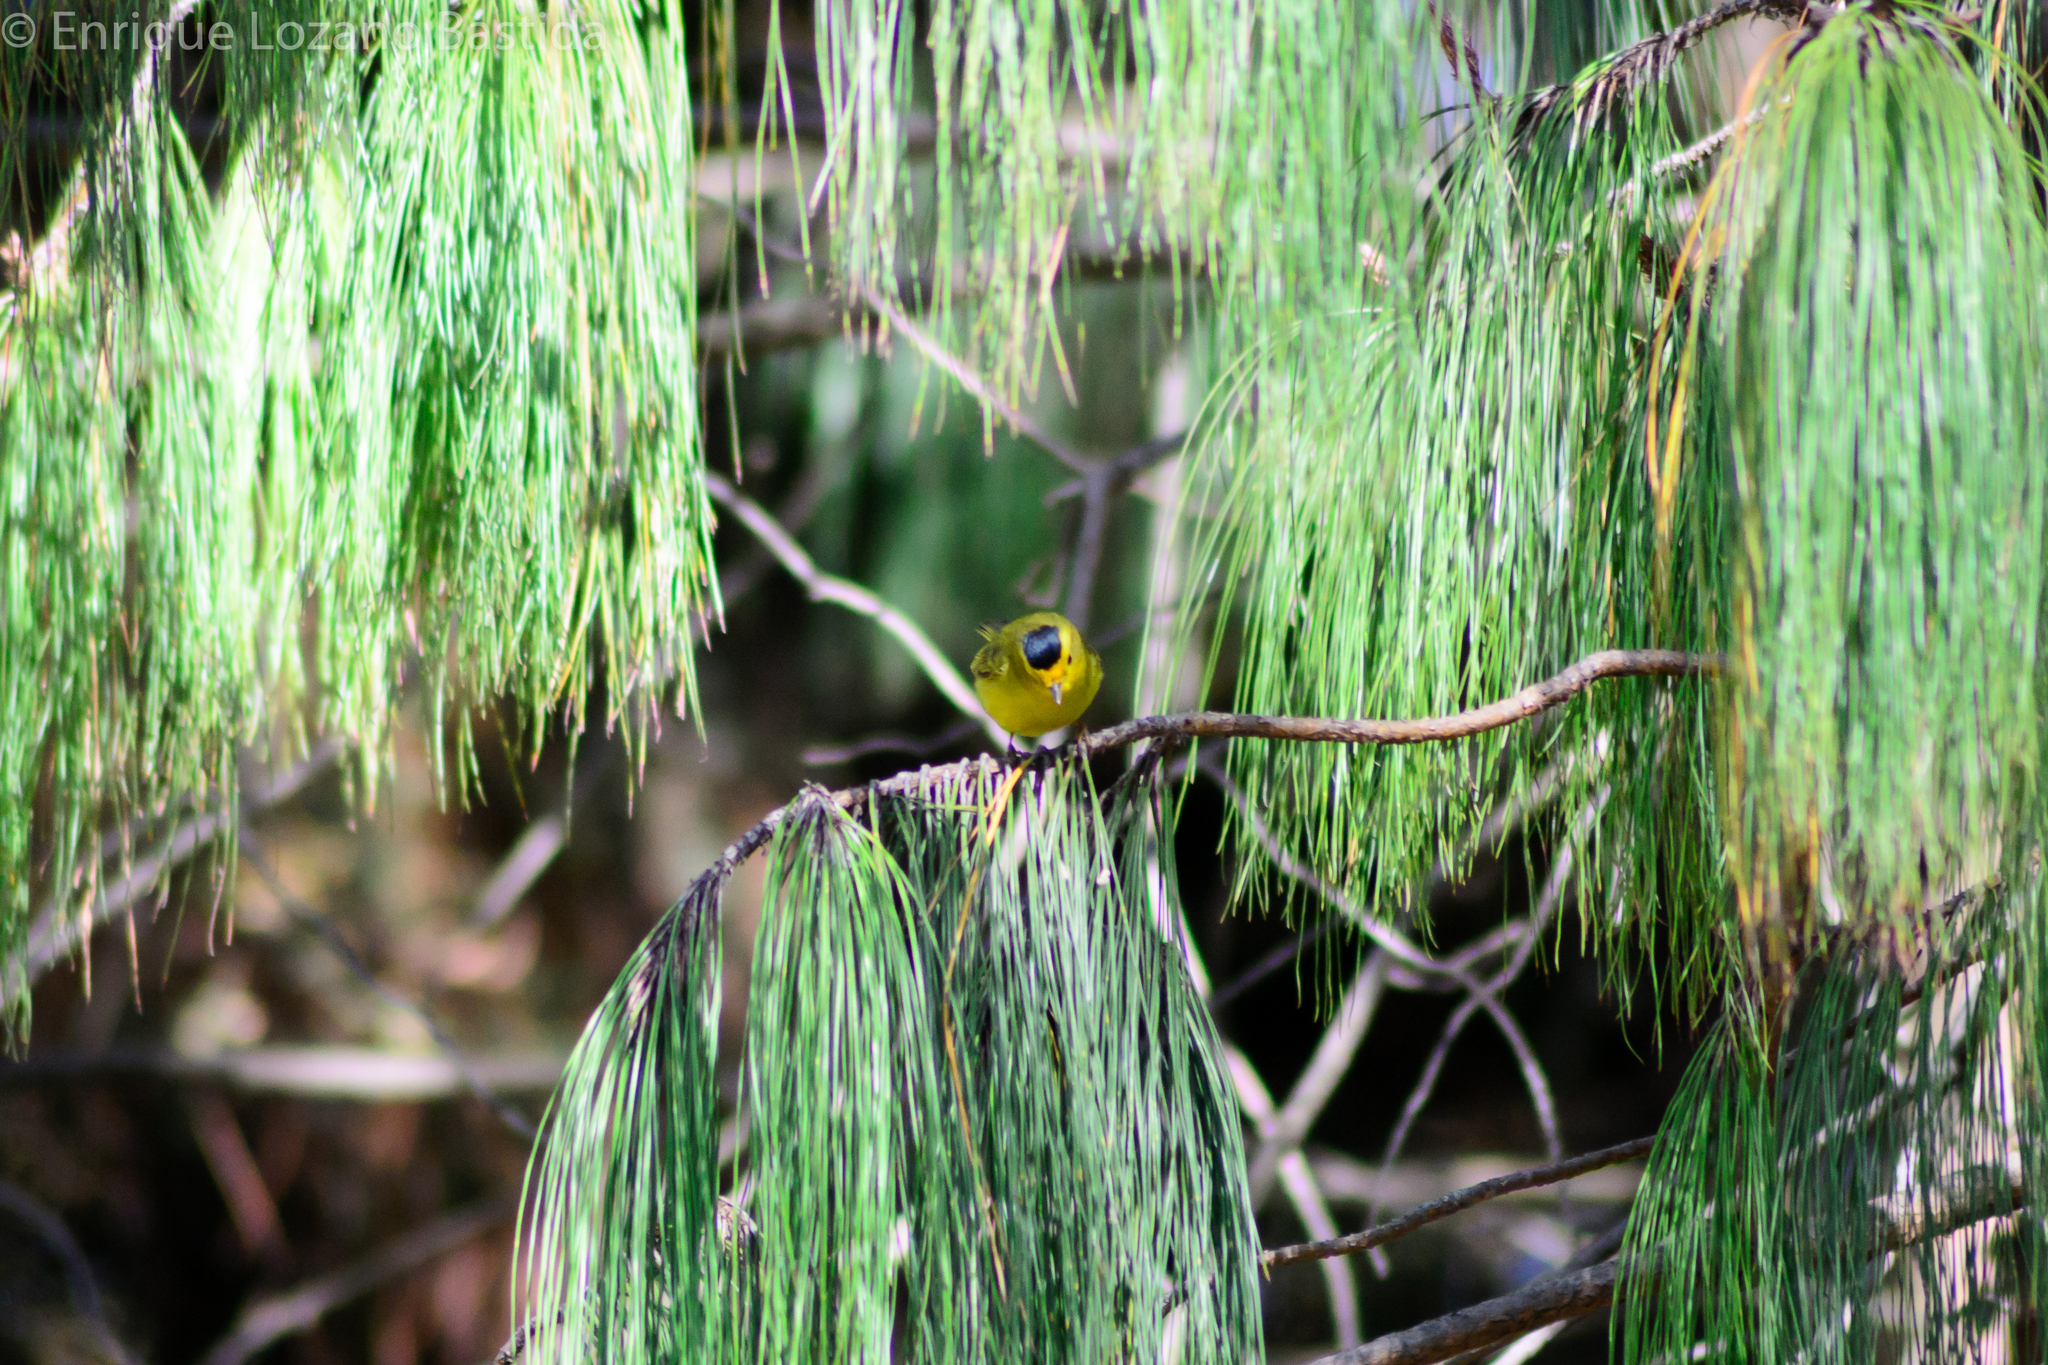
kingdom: Animalia
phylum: Chordata
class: Aves
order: Passeriformes
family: Parulidae
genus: Cardellina
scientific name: Cardellina pusilla
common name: Wilson's warbler
